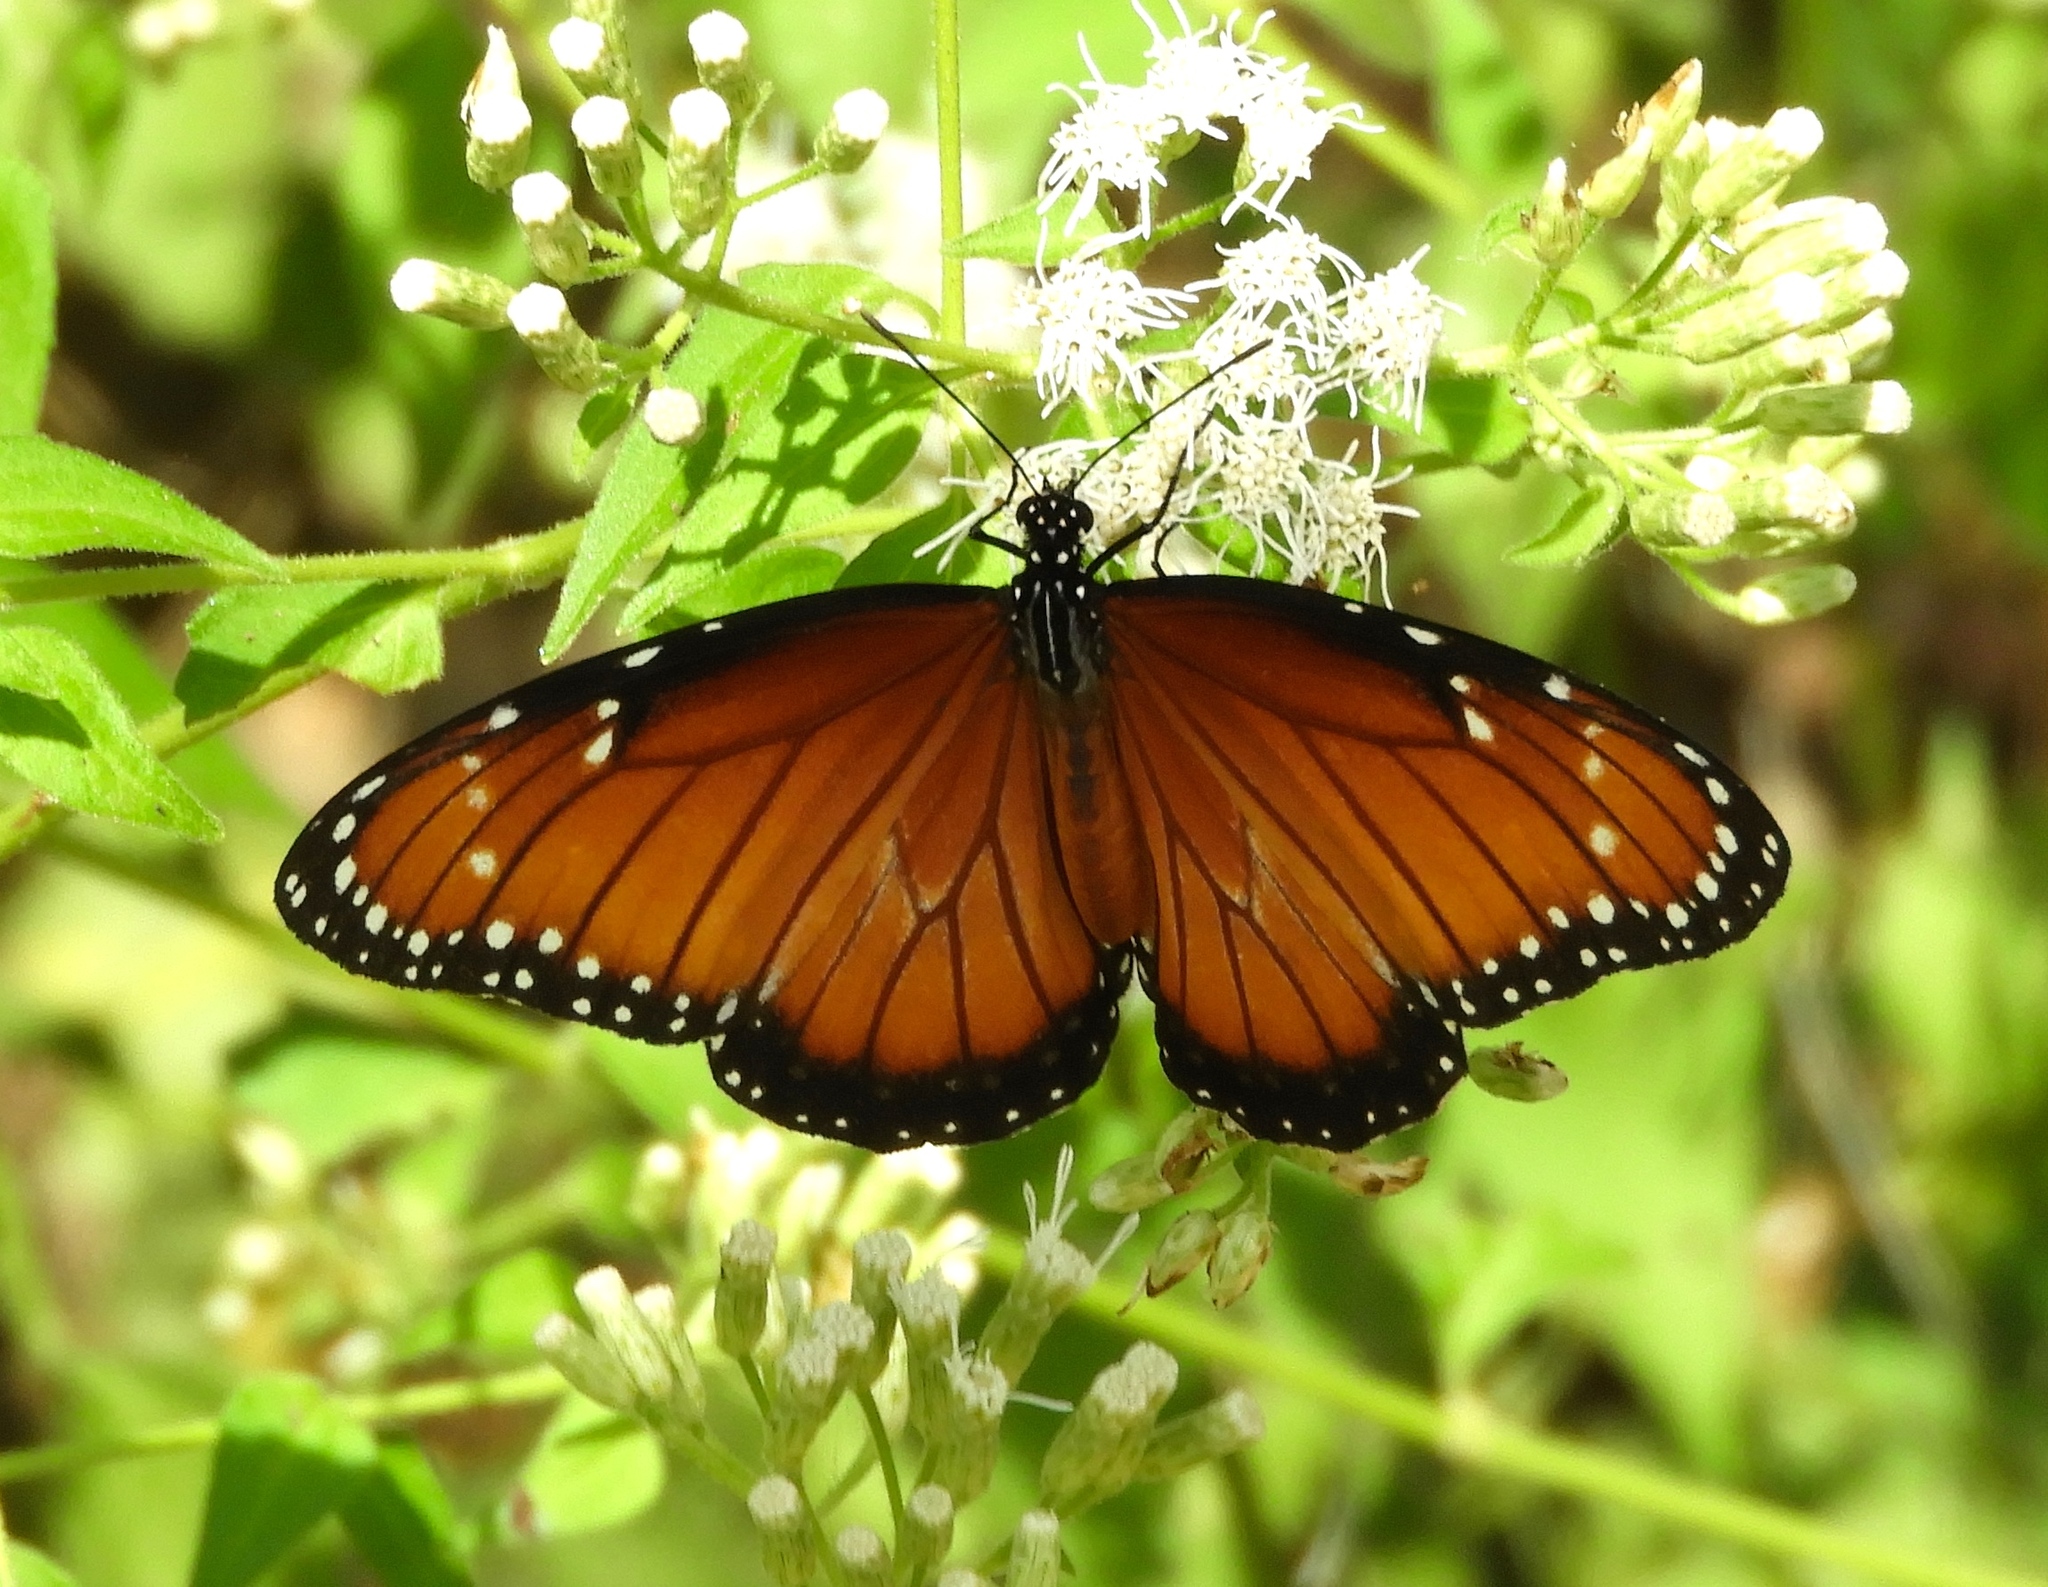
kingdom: Animalia
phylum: Arthropoda
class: Insecta
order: Lepidoptera
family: Nymphalidae
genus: Danaus
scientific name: Danaus eresimus
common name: Soldier
